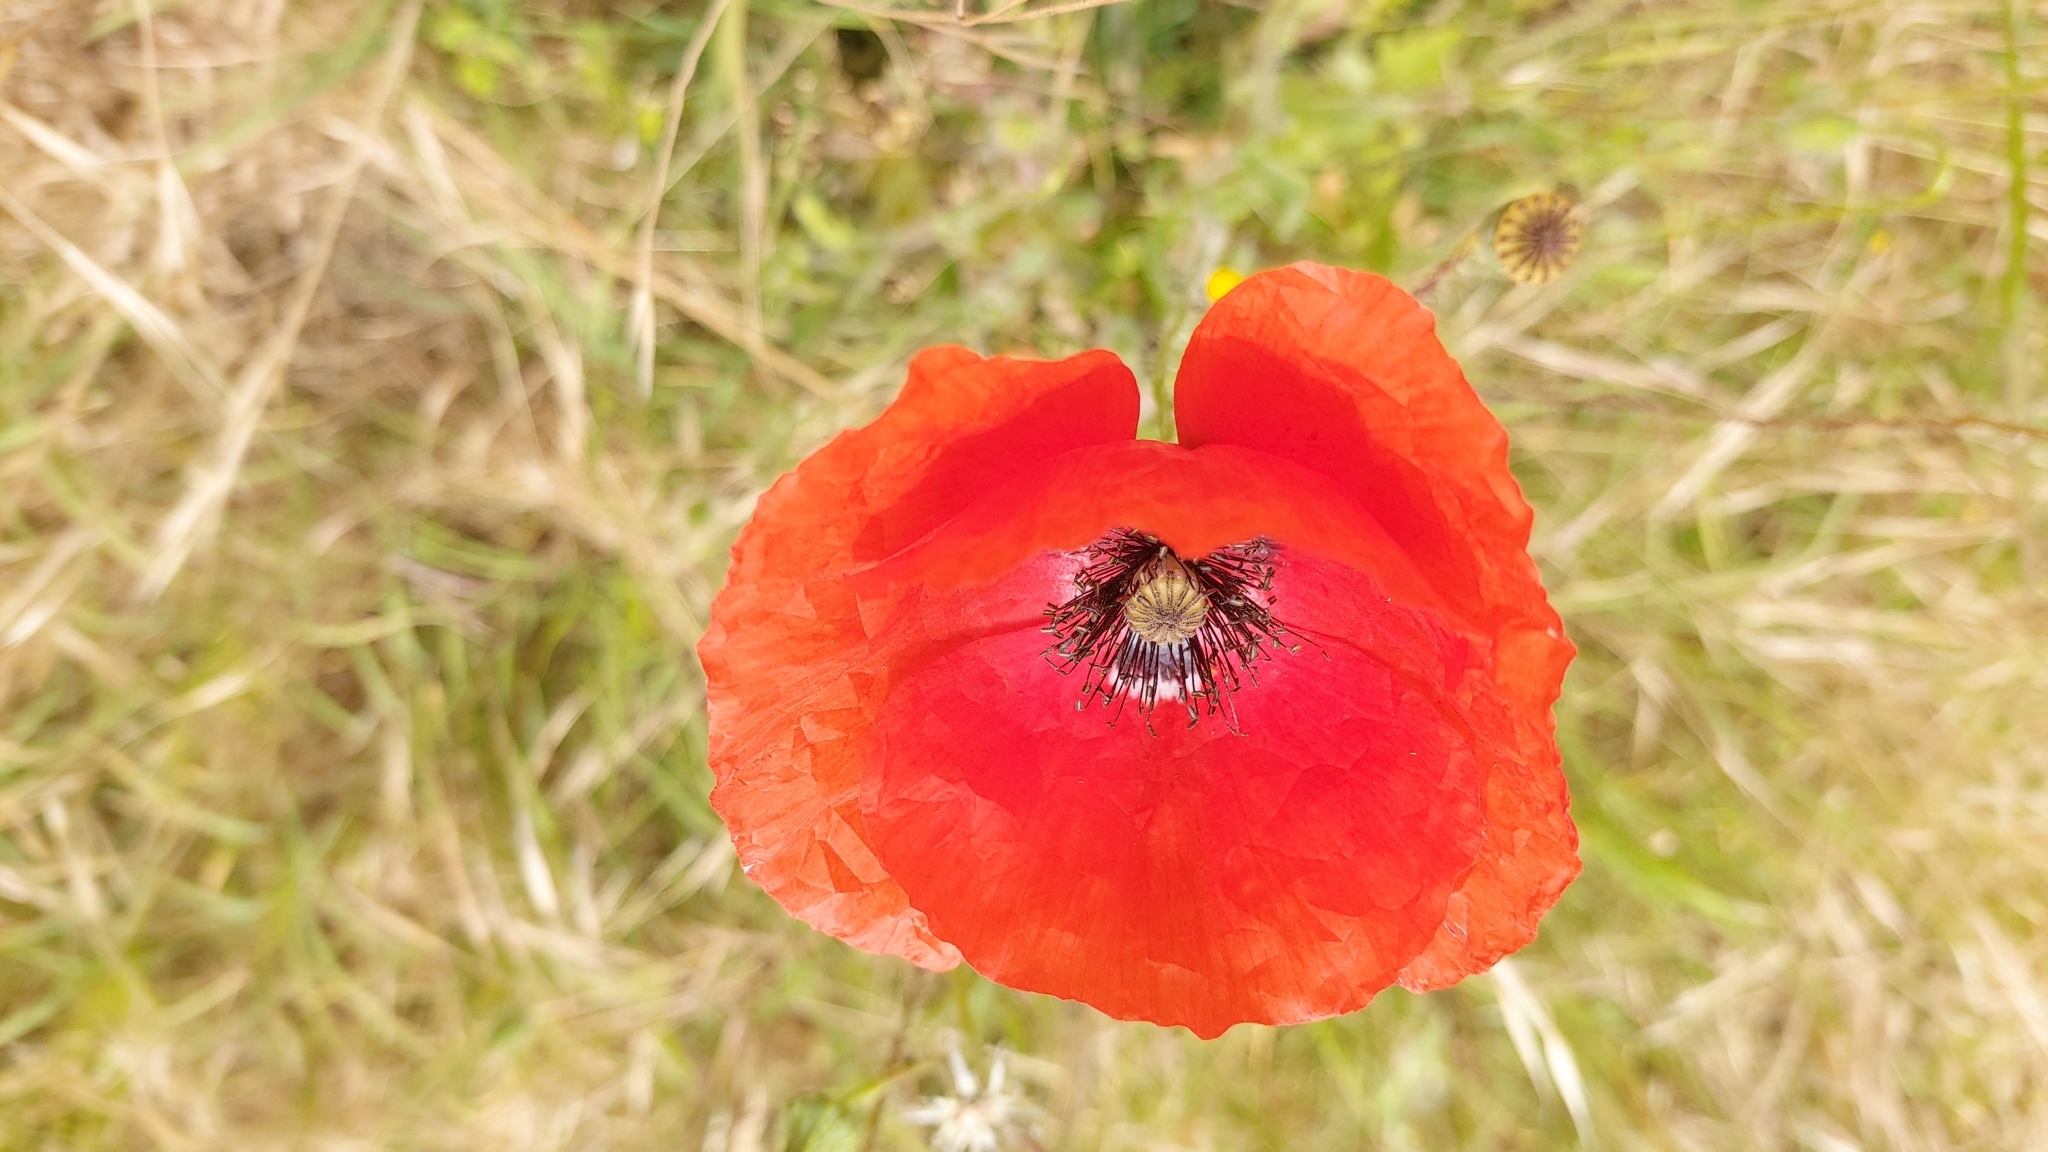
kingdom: Plantae
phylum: Tracheophyta
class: Magnoliopsida
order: Ranunculales
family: Papaveraceae
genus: Papaver
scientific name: Papaver rhoeas
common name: Corn poppy
